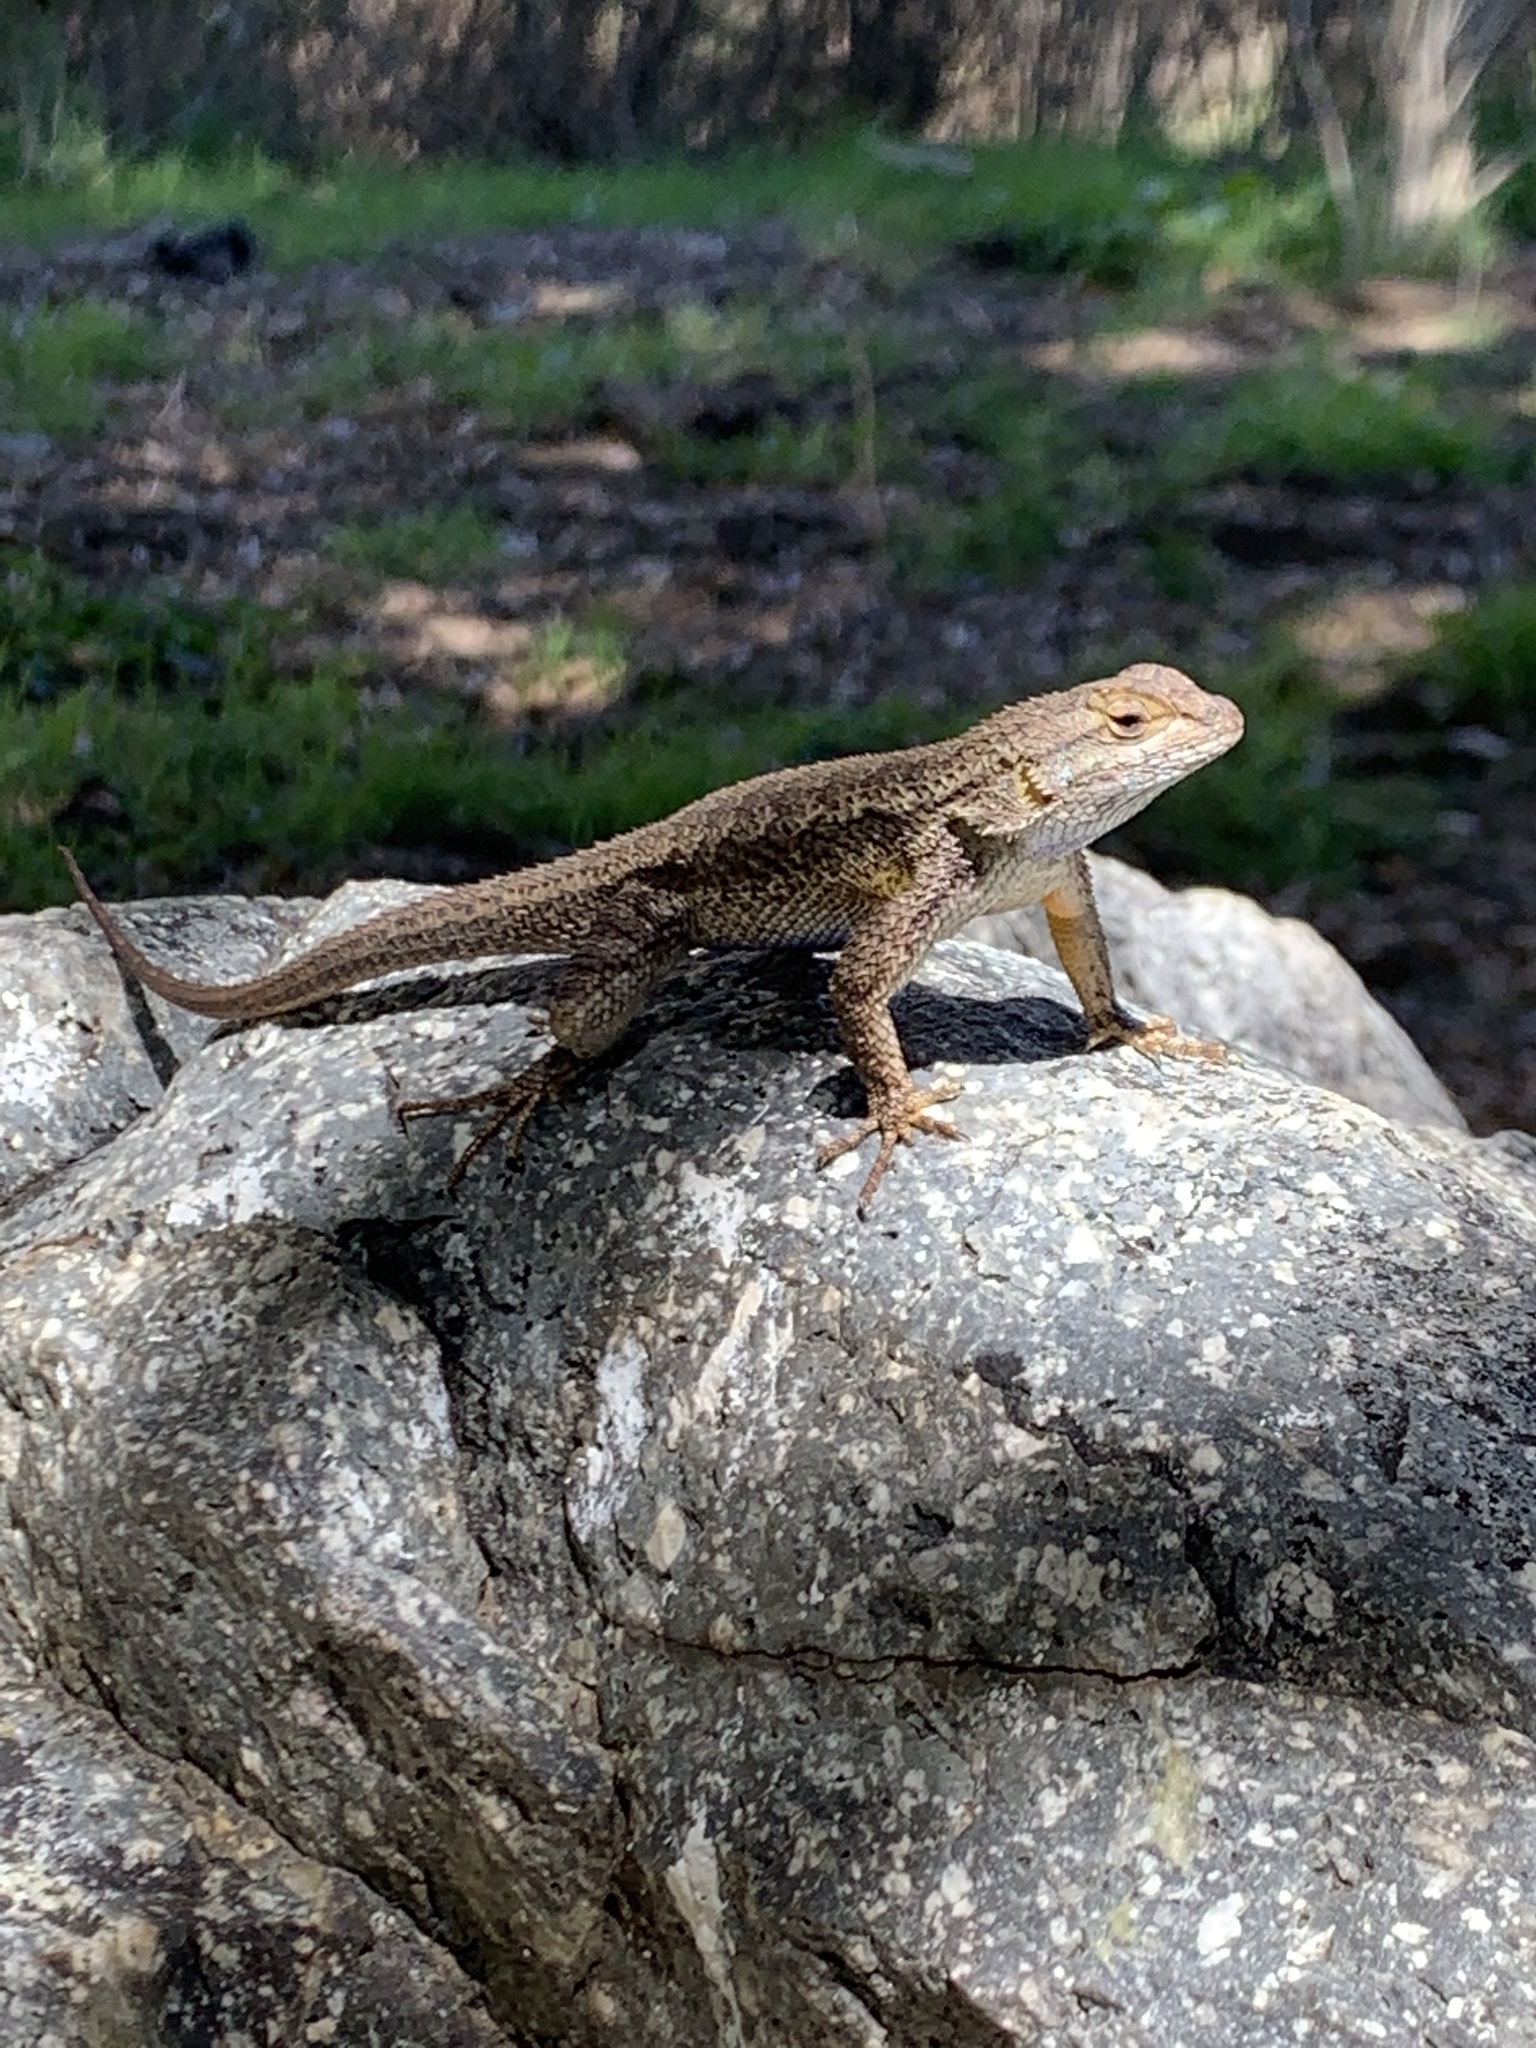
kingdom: Animalia
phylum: Chordata
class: Squamata
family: Phrynosomatidae
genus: Sceloporus
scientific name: Sceloporus occidentalis
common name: Western fence lizard
